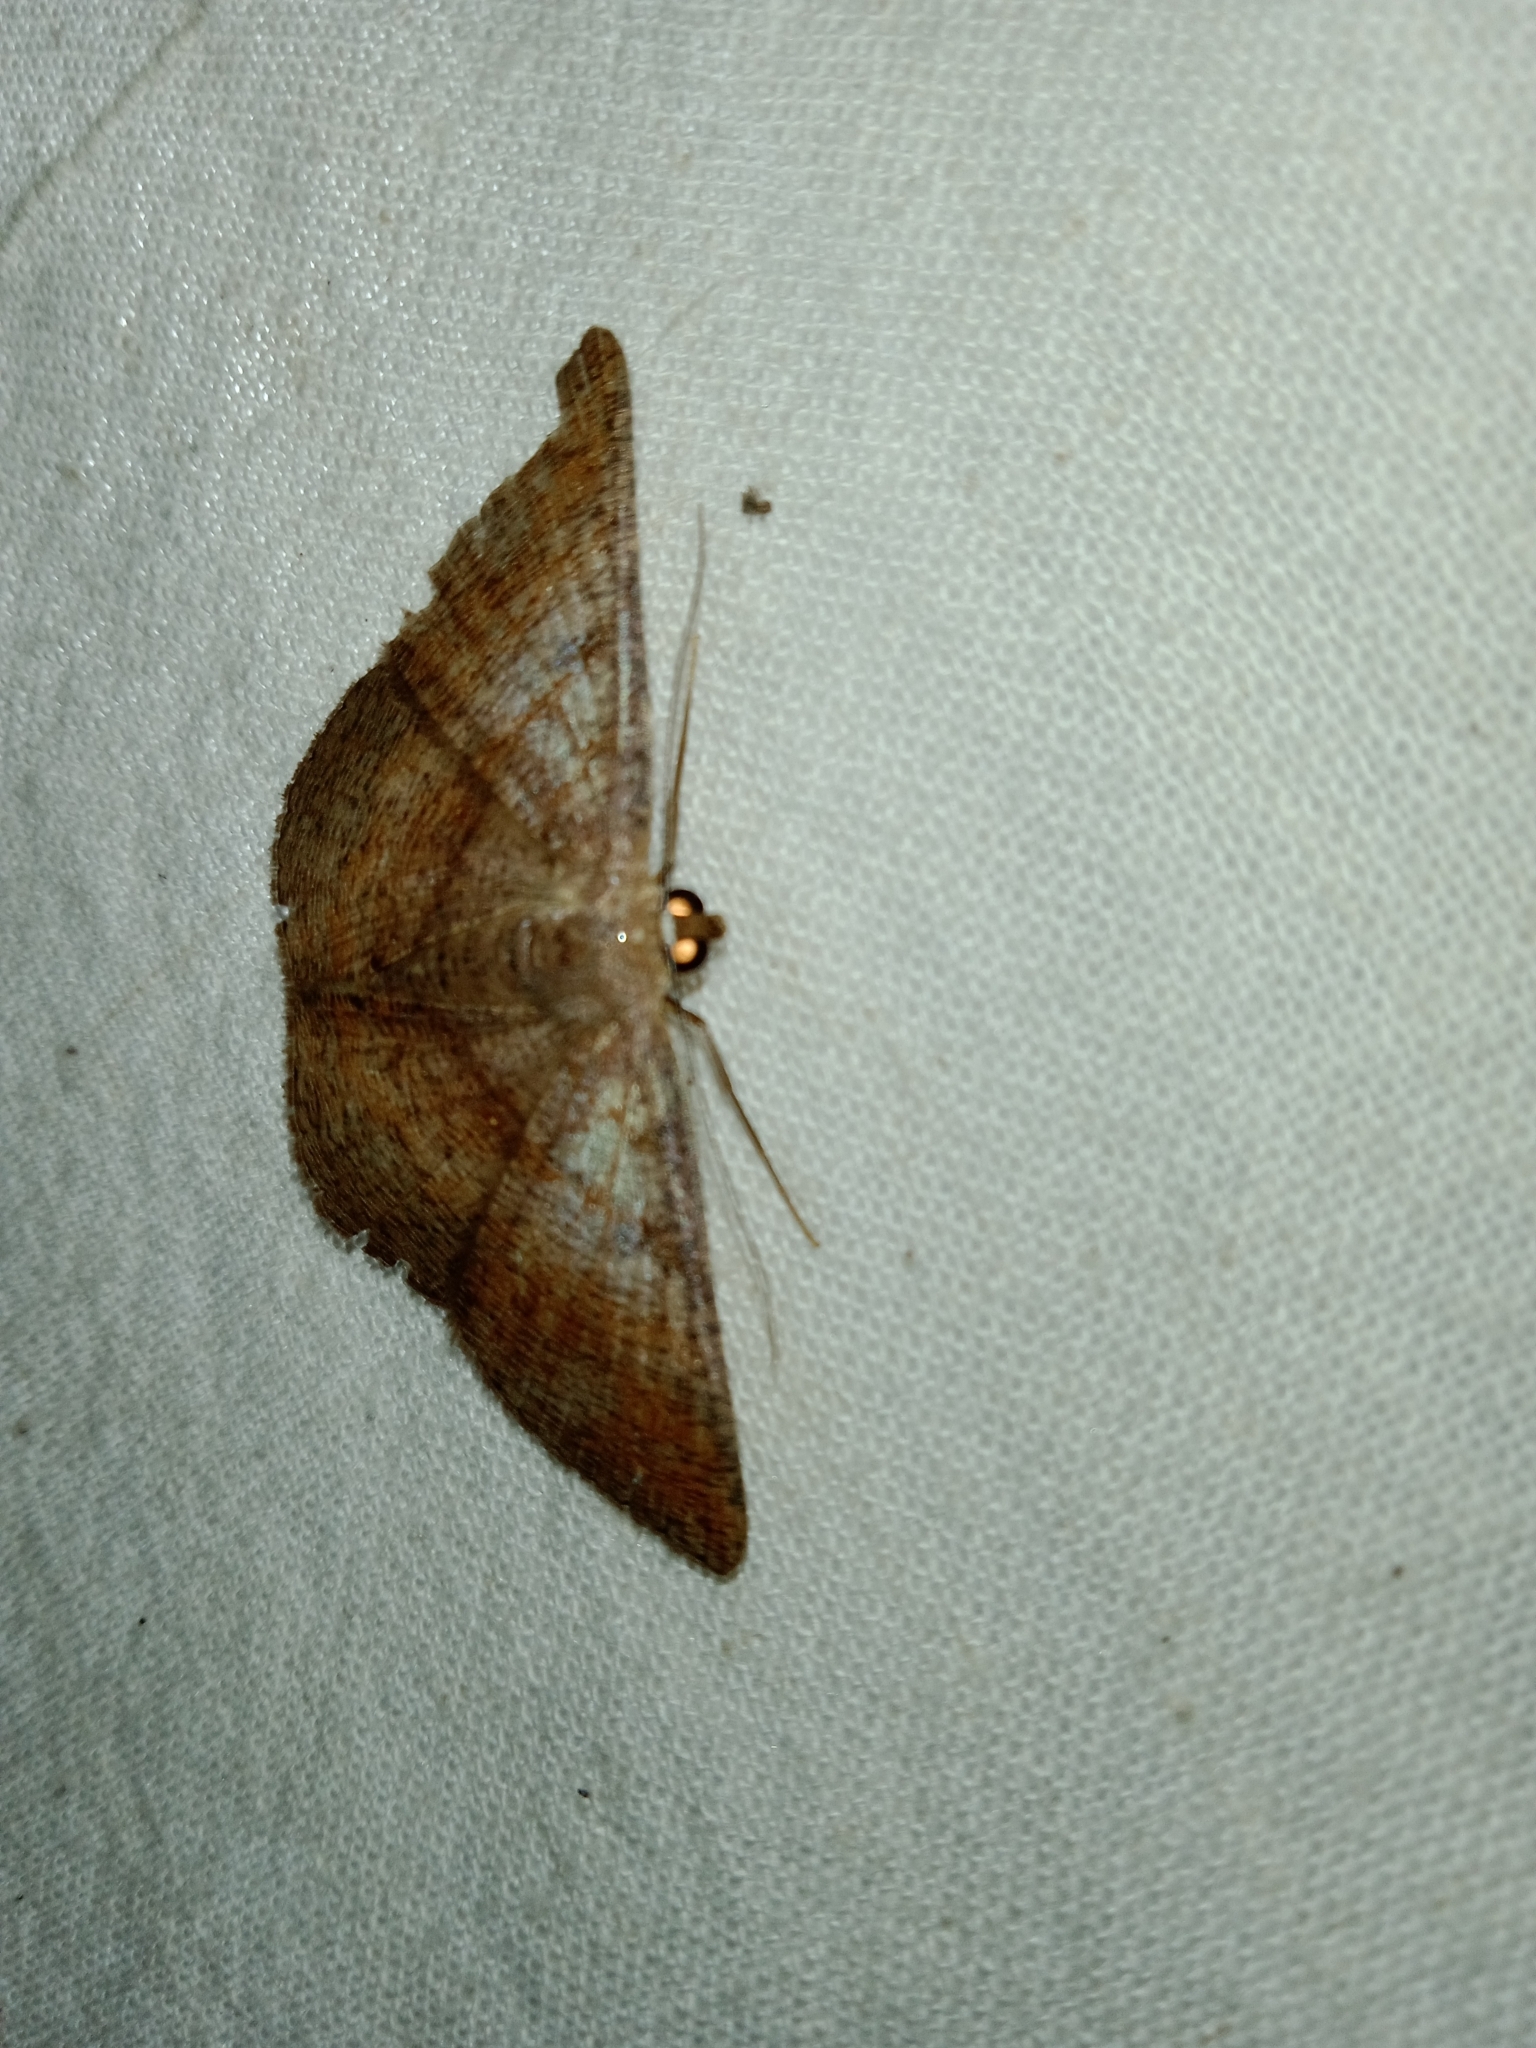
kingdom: Animalia
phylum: Arthropoda
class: Insecta
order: Lepidoptera
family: Geometridae
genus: Petelia
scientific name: Petelia medardaria
